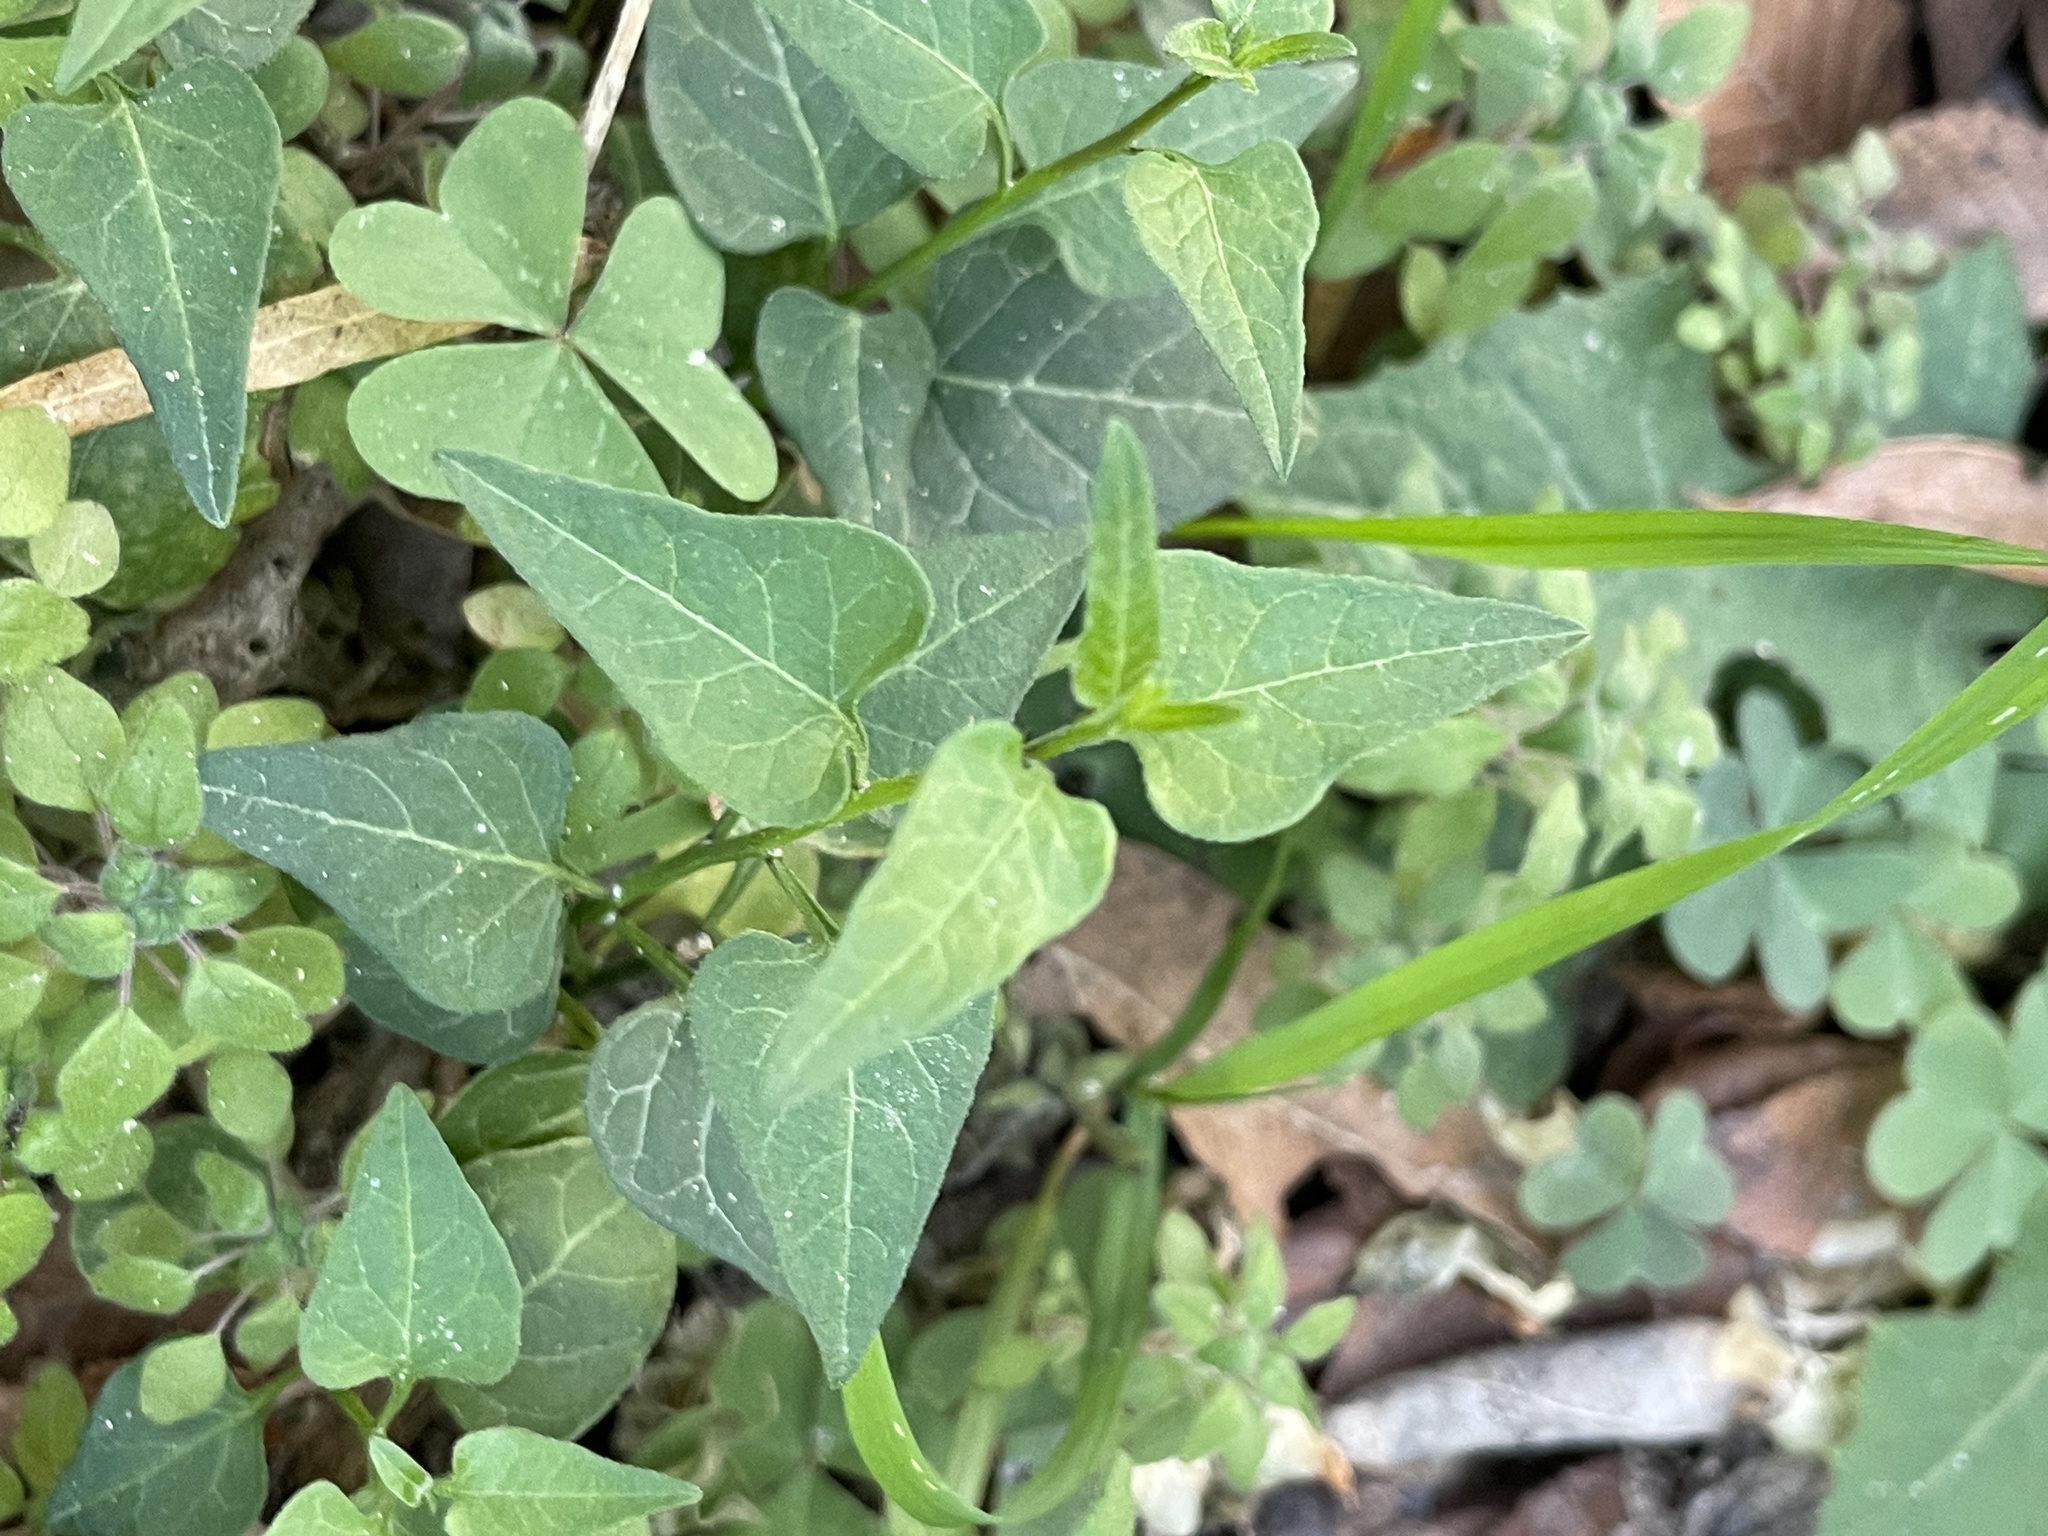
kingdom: Plantae
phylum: Tracheophyta
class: Magnoliopsida
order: Solanales
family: Solanaceae
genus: Solanum
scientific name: Solanum triquetrum
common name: Texas nightshade
